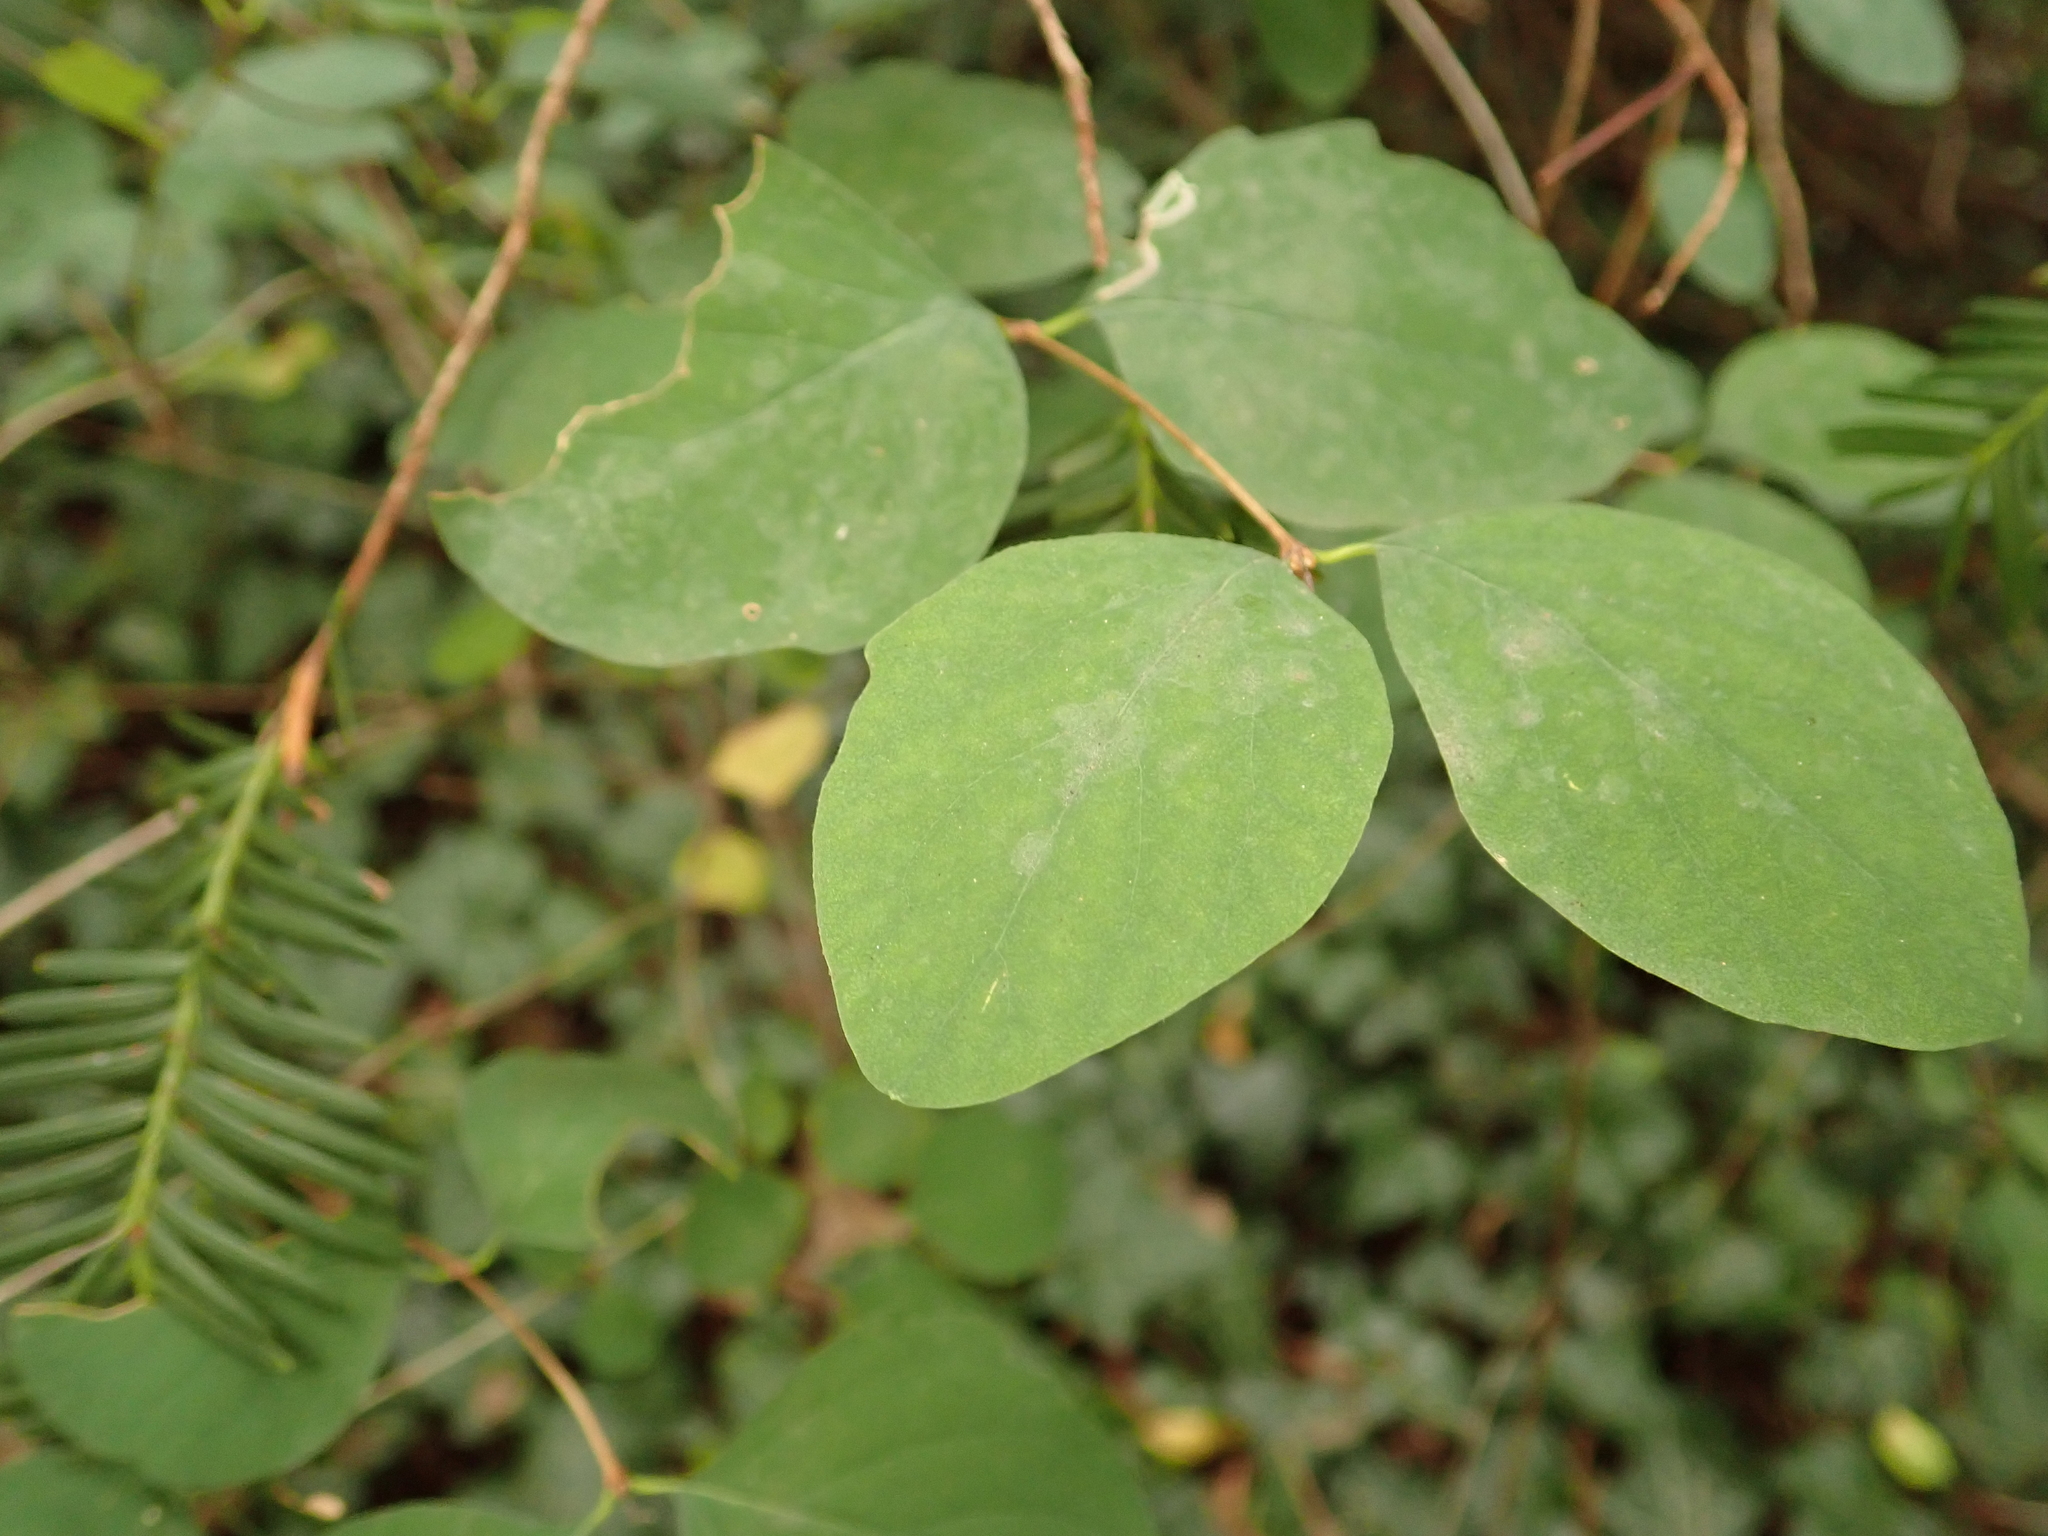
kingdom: Plantae
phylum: Tracheophyta
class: Magnoliopsida
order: Dipsacales
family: Caprifoliaceae
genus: Symphoricarpos
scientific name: Symphoricarpos albus
